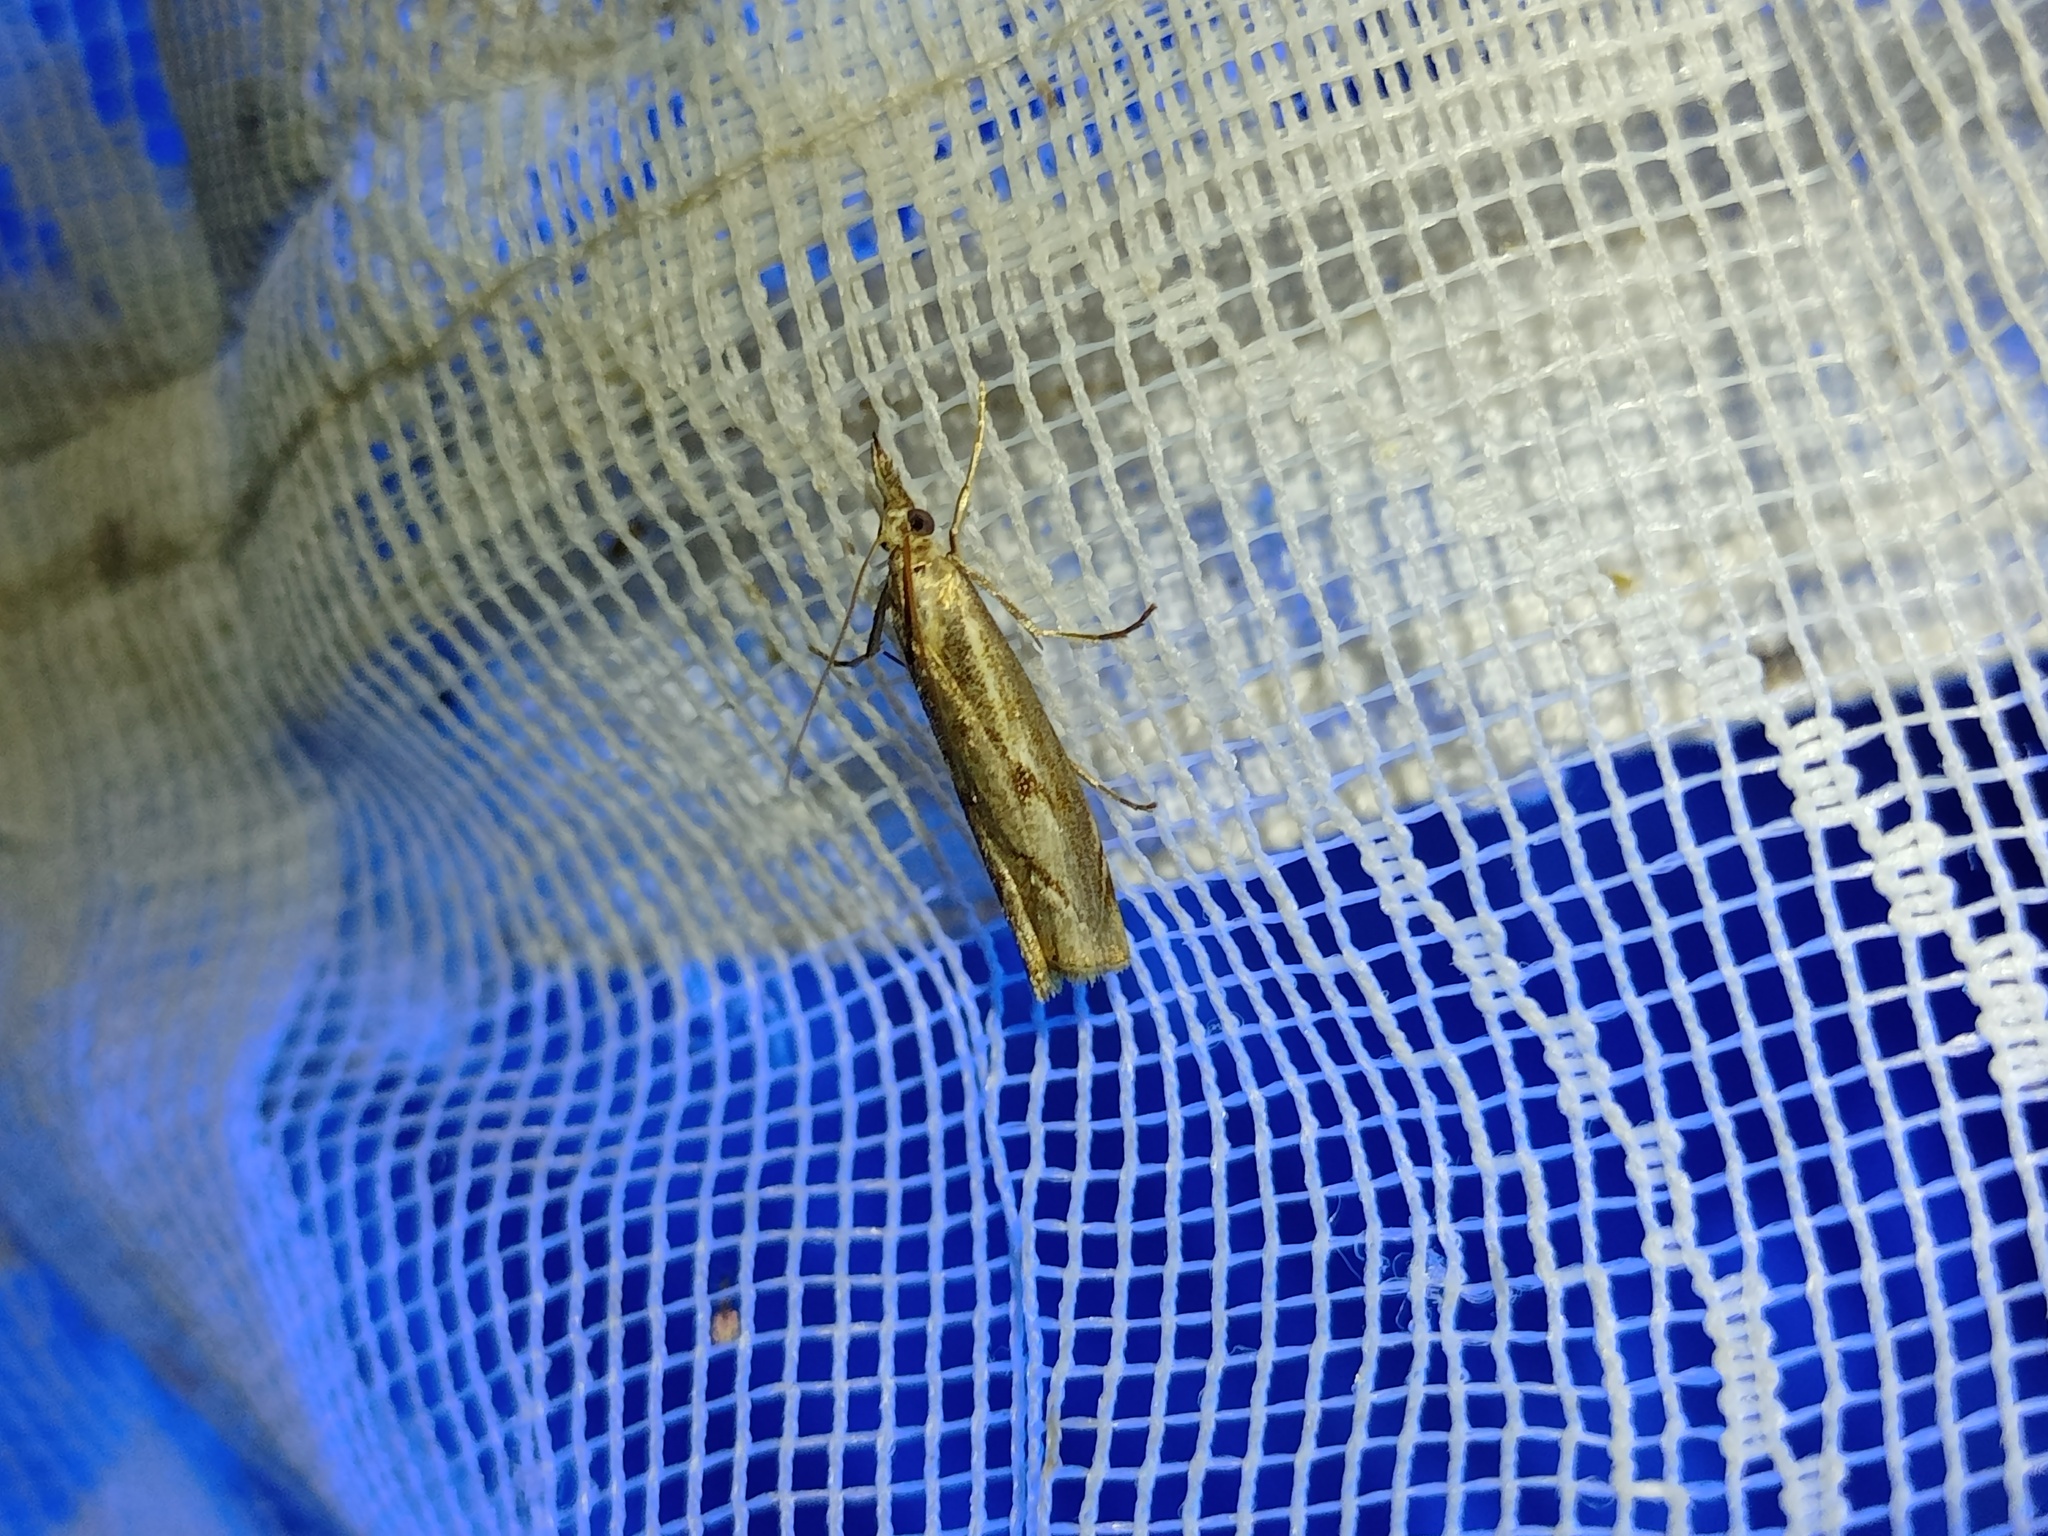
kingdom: Animalia
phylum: Arthropoda
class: Insecta
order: Lepidoptera
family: Crambidae
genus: Agriphila
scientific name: Agriphila geniculea
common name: Elbow-stripe grass-veneer
